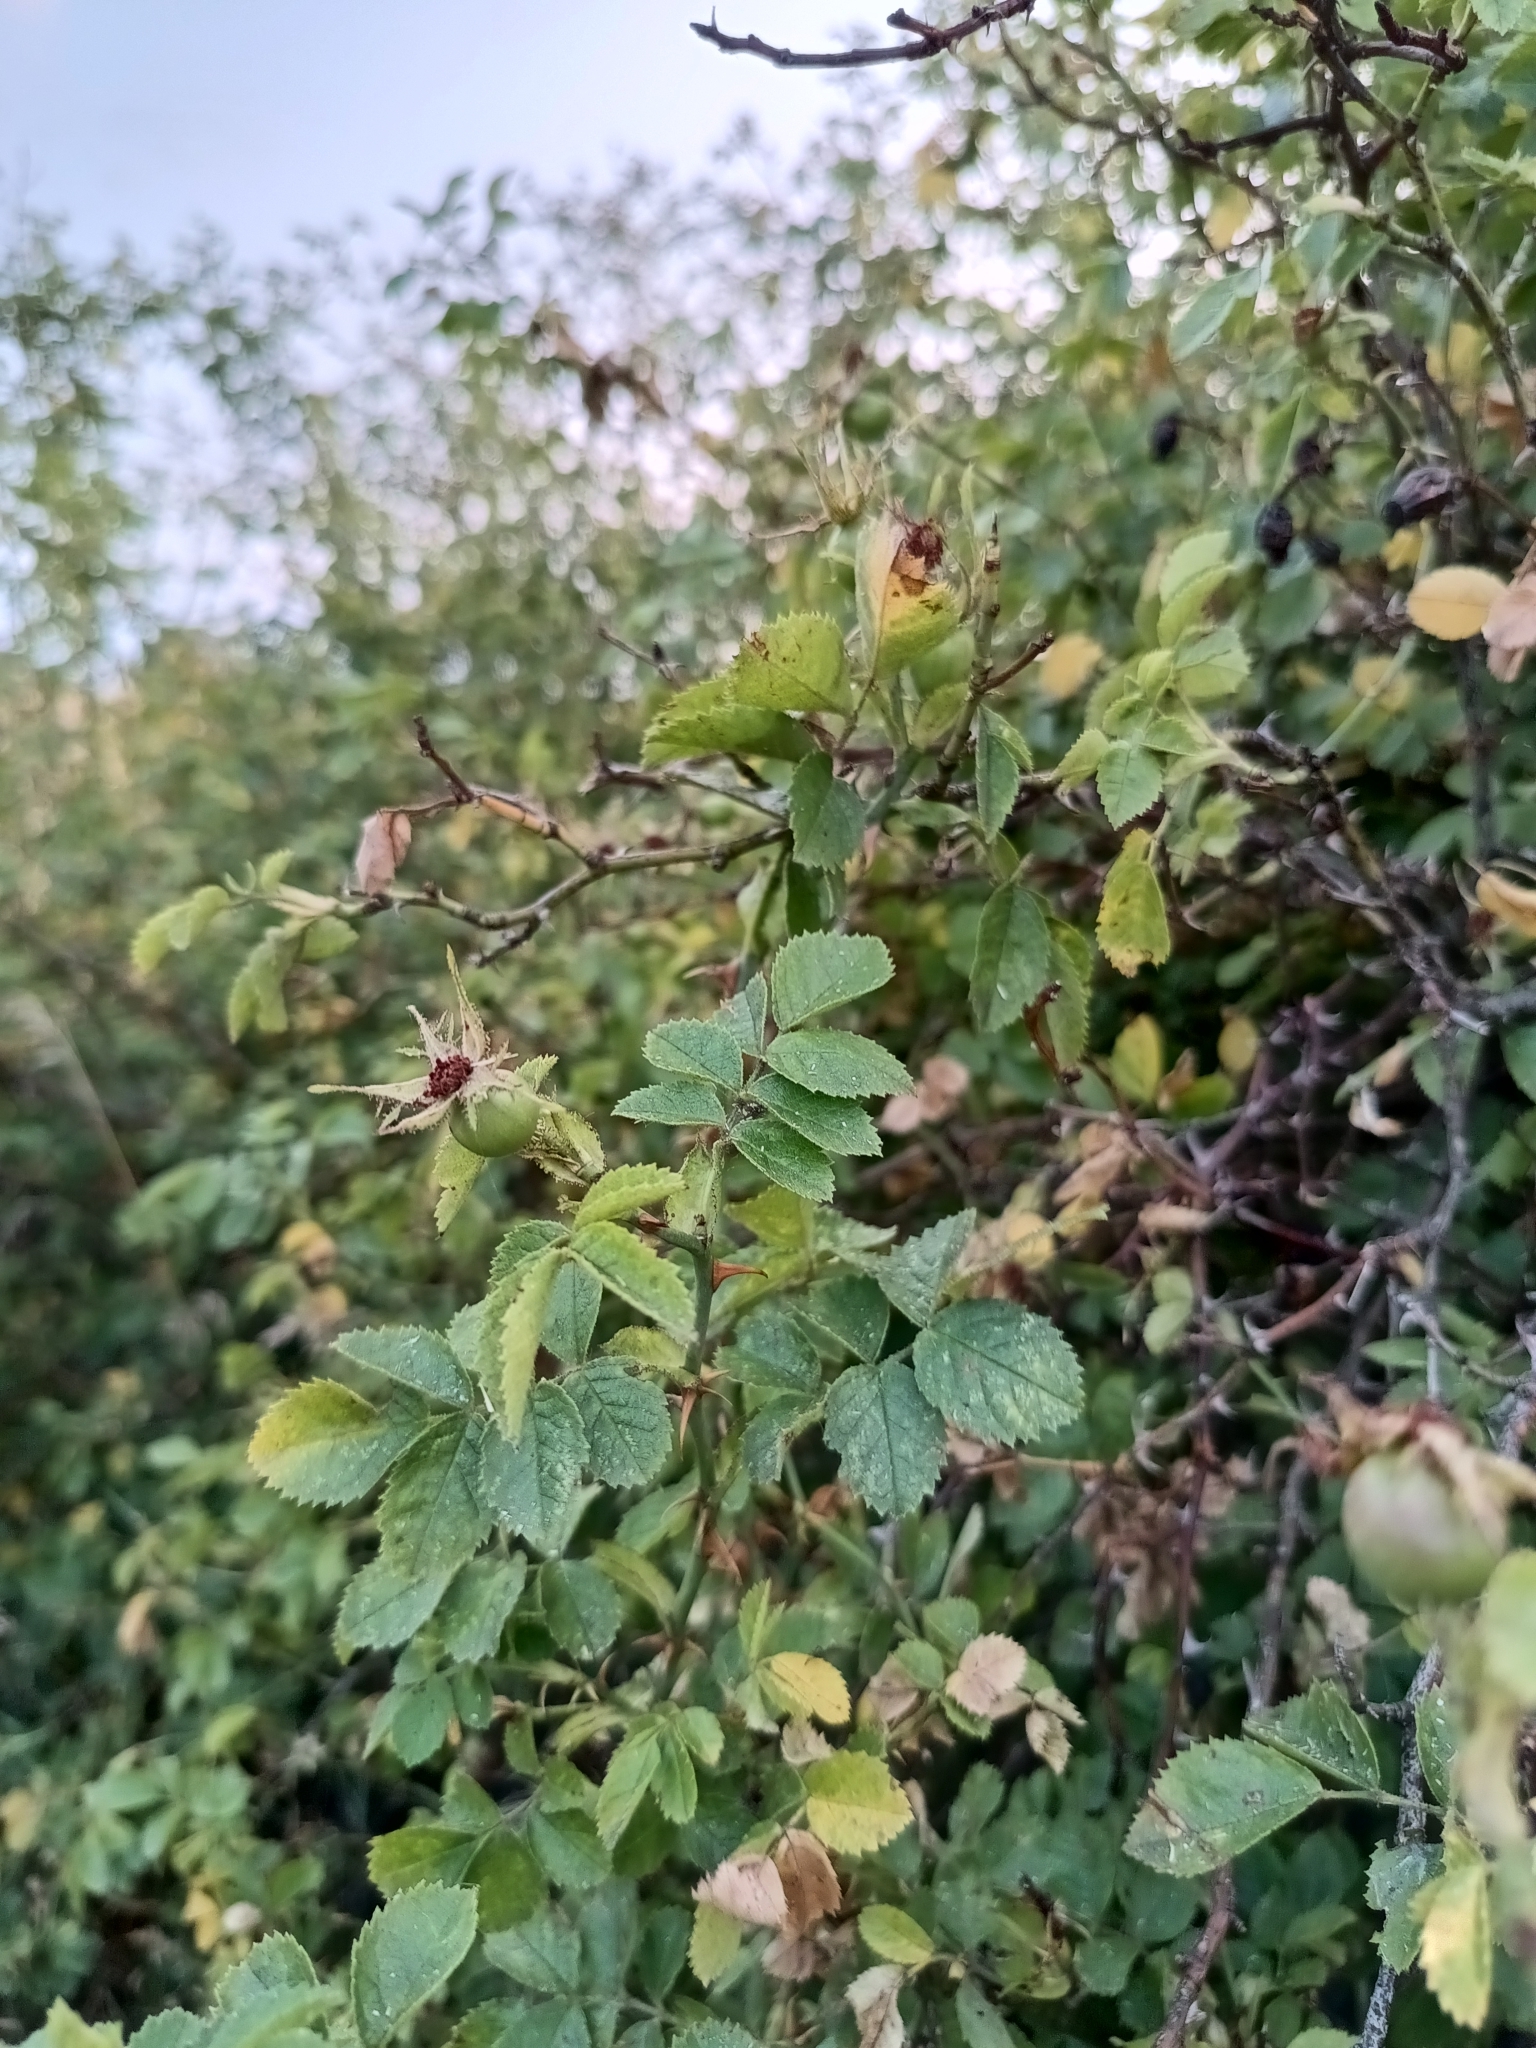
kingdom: Plantae
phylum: Tracheophyta
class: Magnoliopsida
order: Rosales
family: Rosaceae
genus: Rosa
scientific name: Rosa rubiginosa
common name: Sweet-briar
